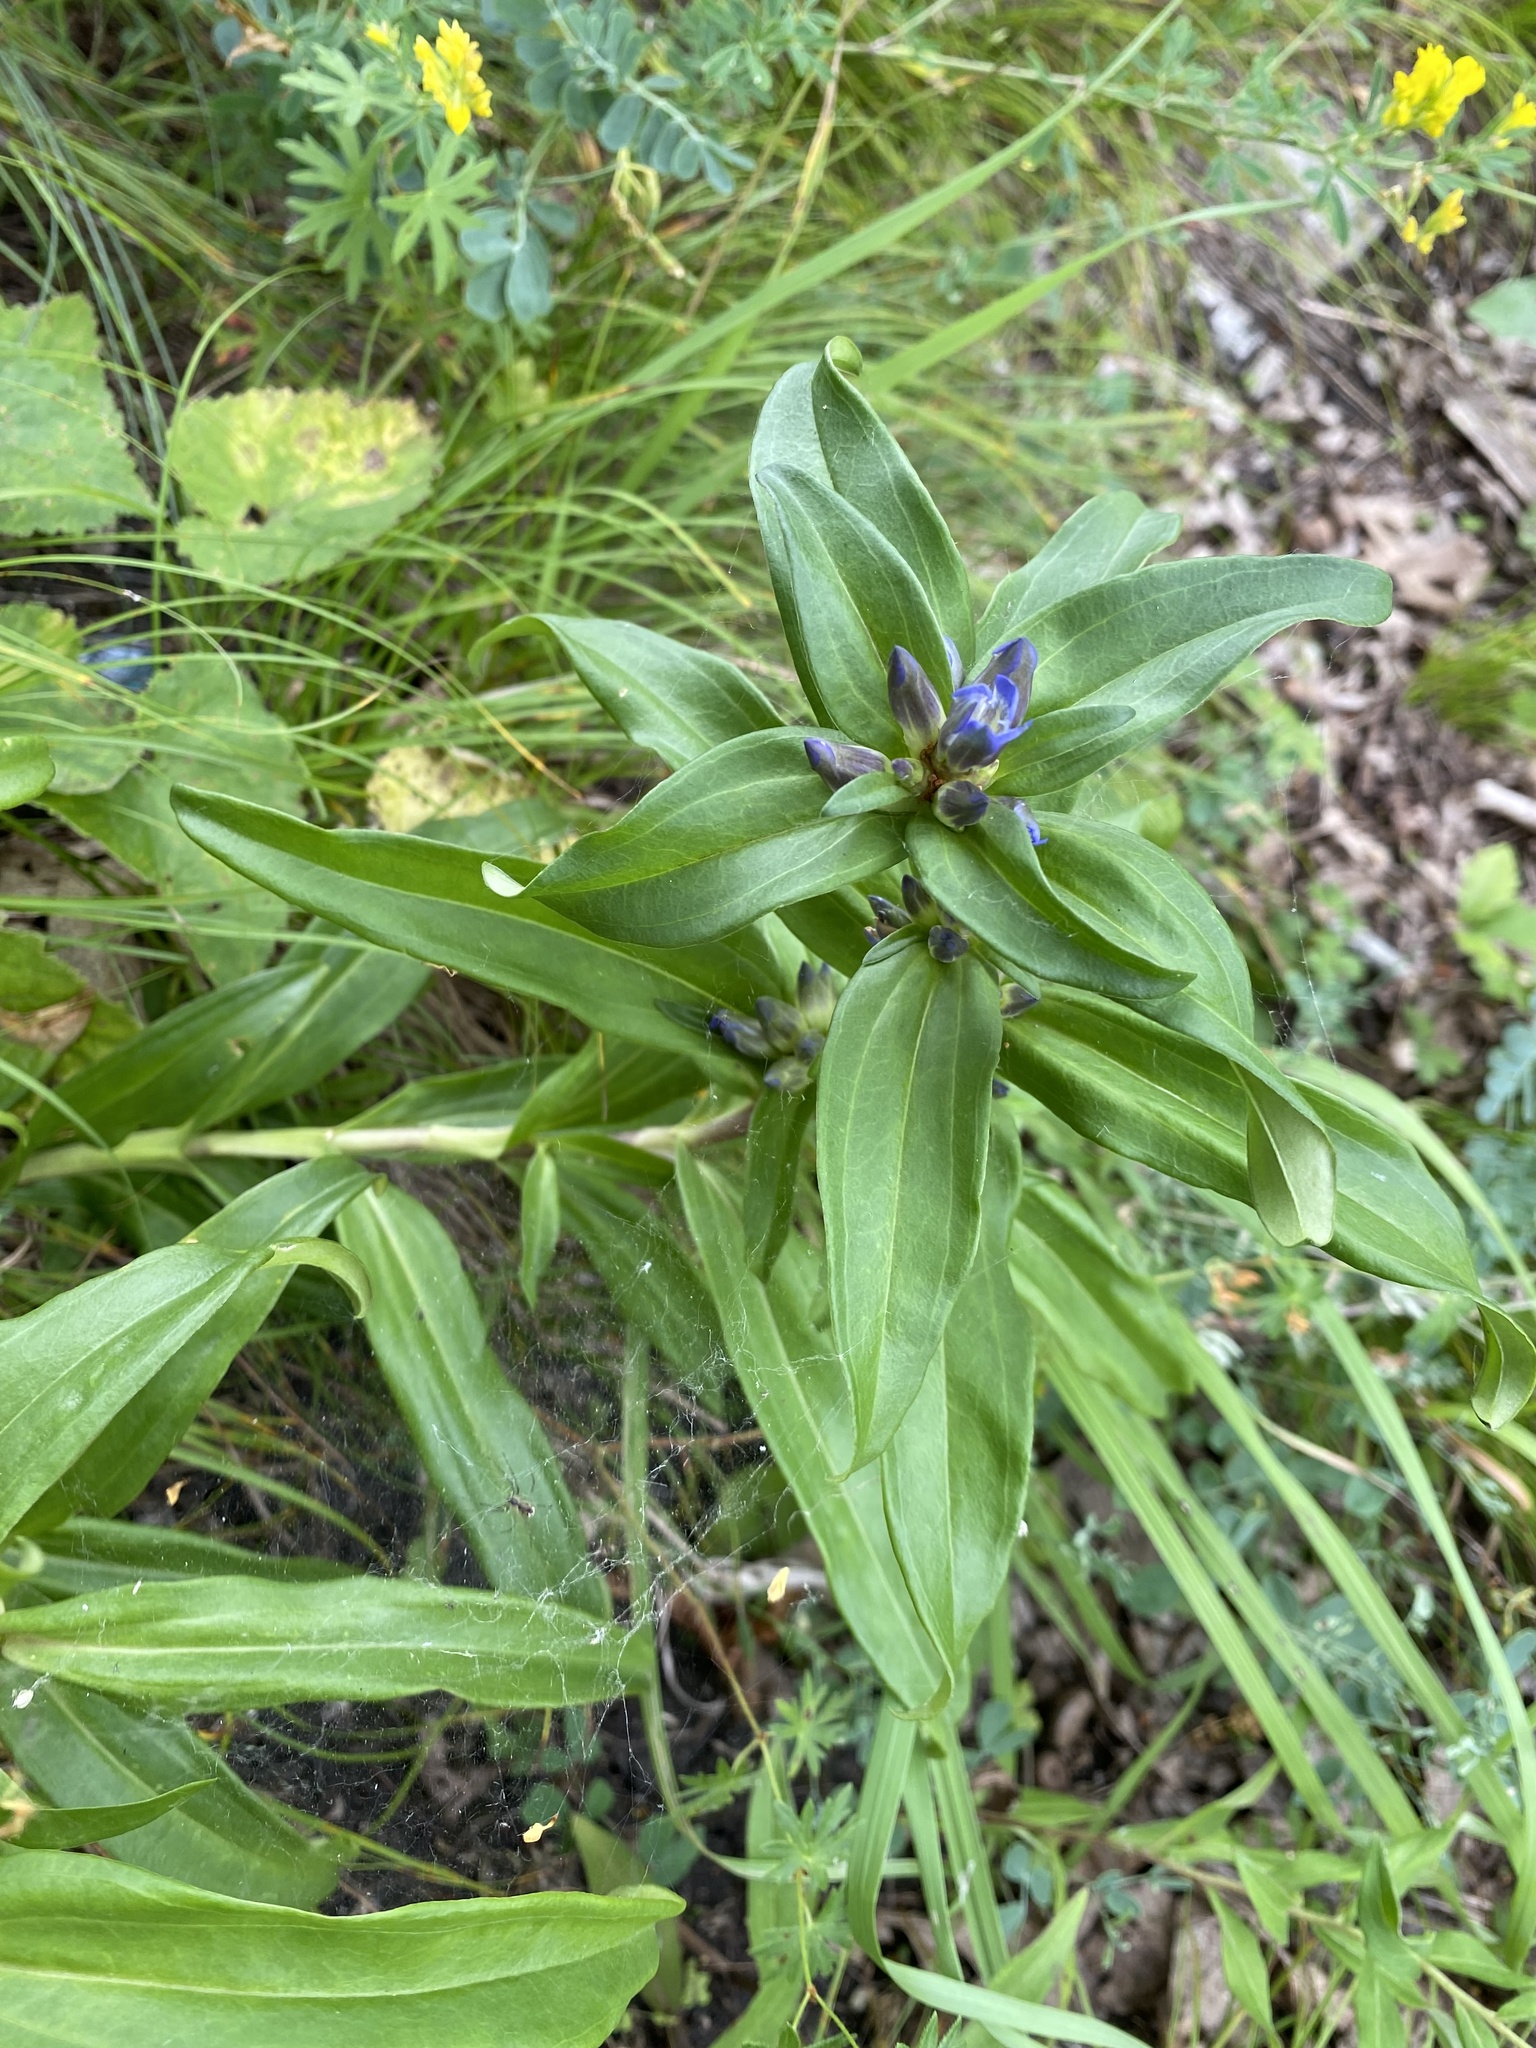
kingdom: Plantae
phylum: Tracheophyta
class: Magnoliopsida
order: Gentianales
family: Gentianaceae
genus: Gentiana
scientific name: Gentiana cruciata
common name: Cross gentian
